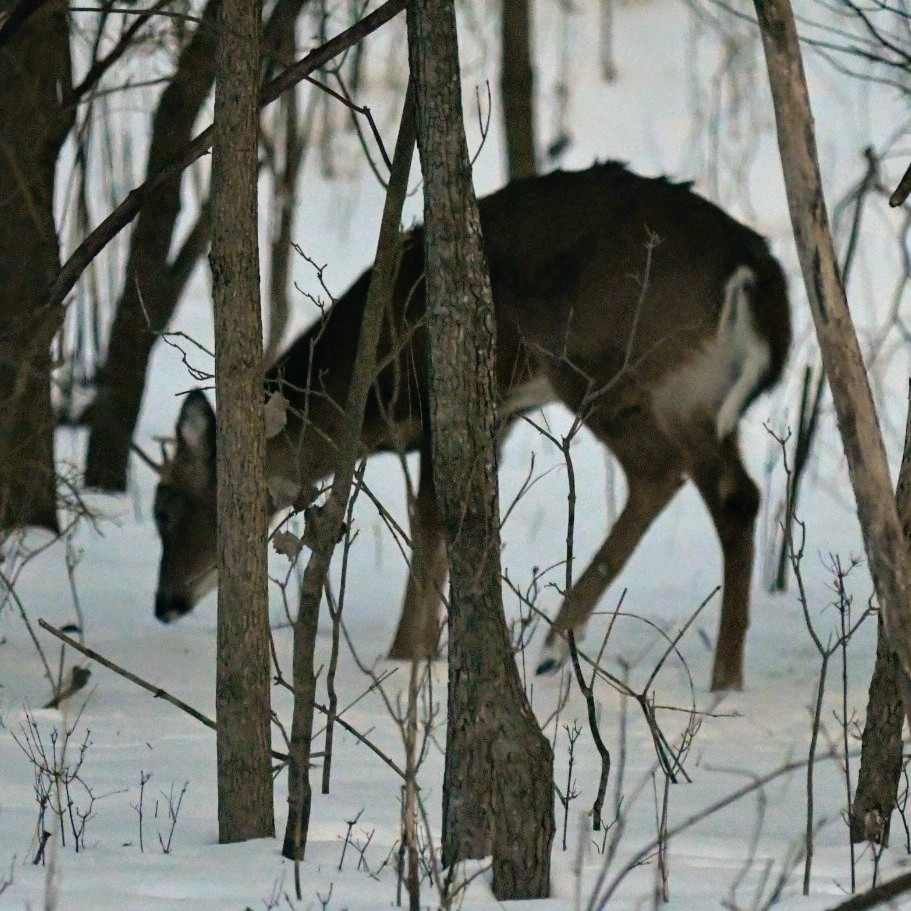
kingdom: Animalia
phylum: Chordata
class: Mammalia
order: Artiodactyla
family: Cervidae
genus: Odocoileus
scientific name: Odocoileus virginianus
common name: White-tailed deer
